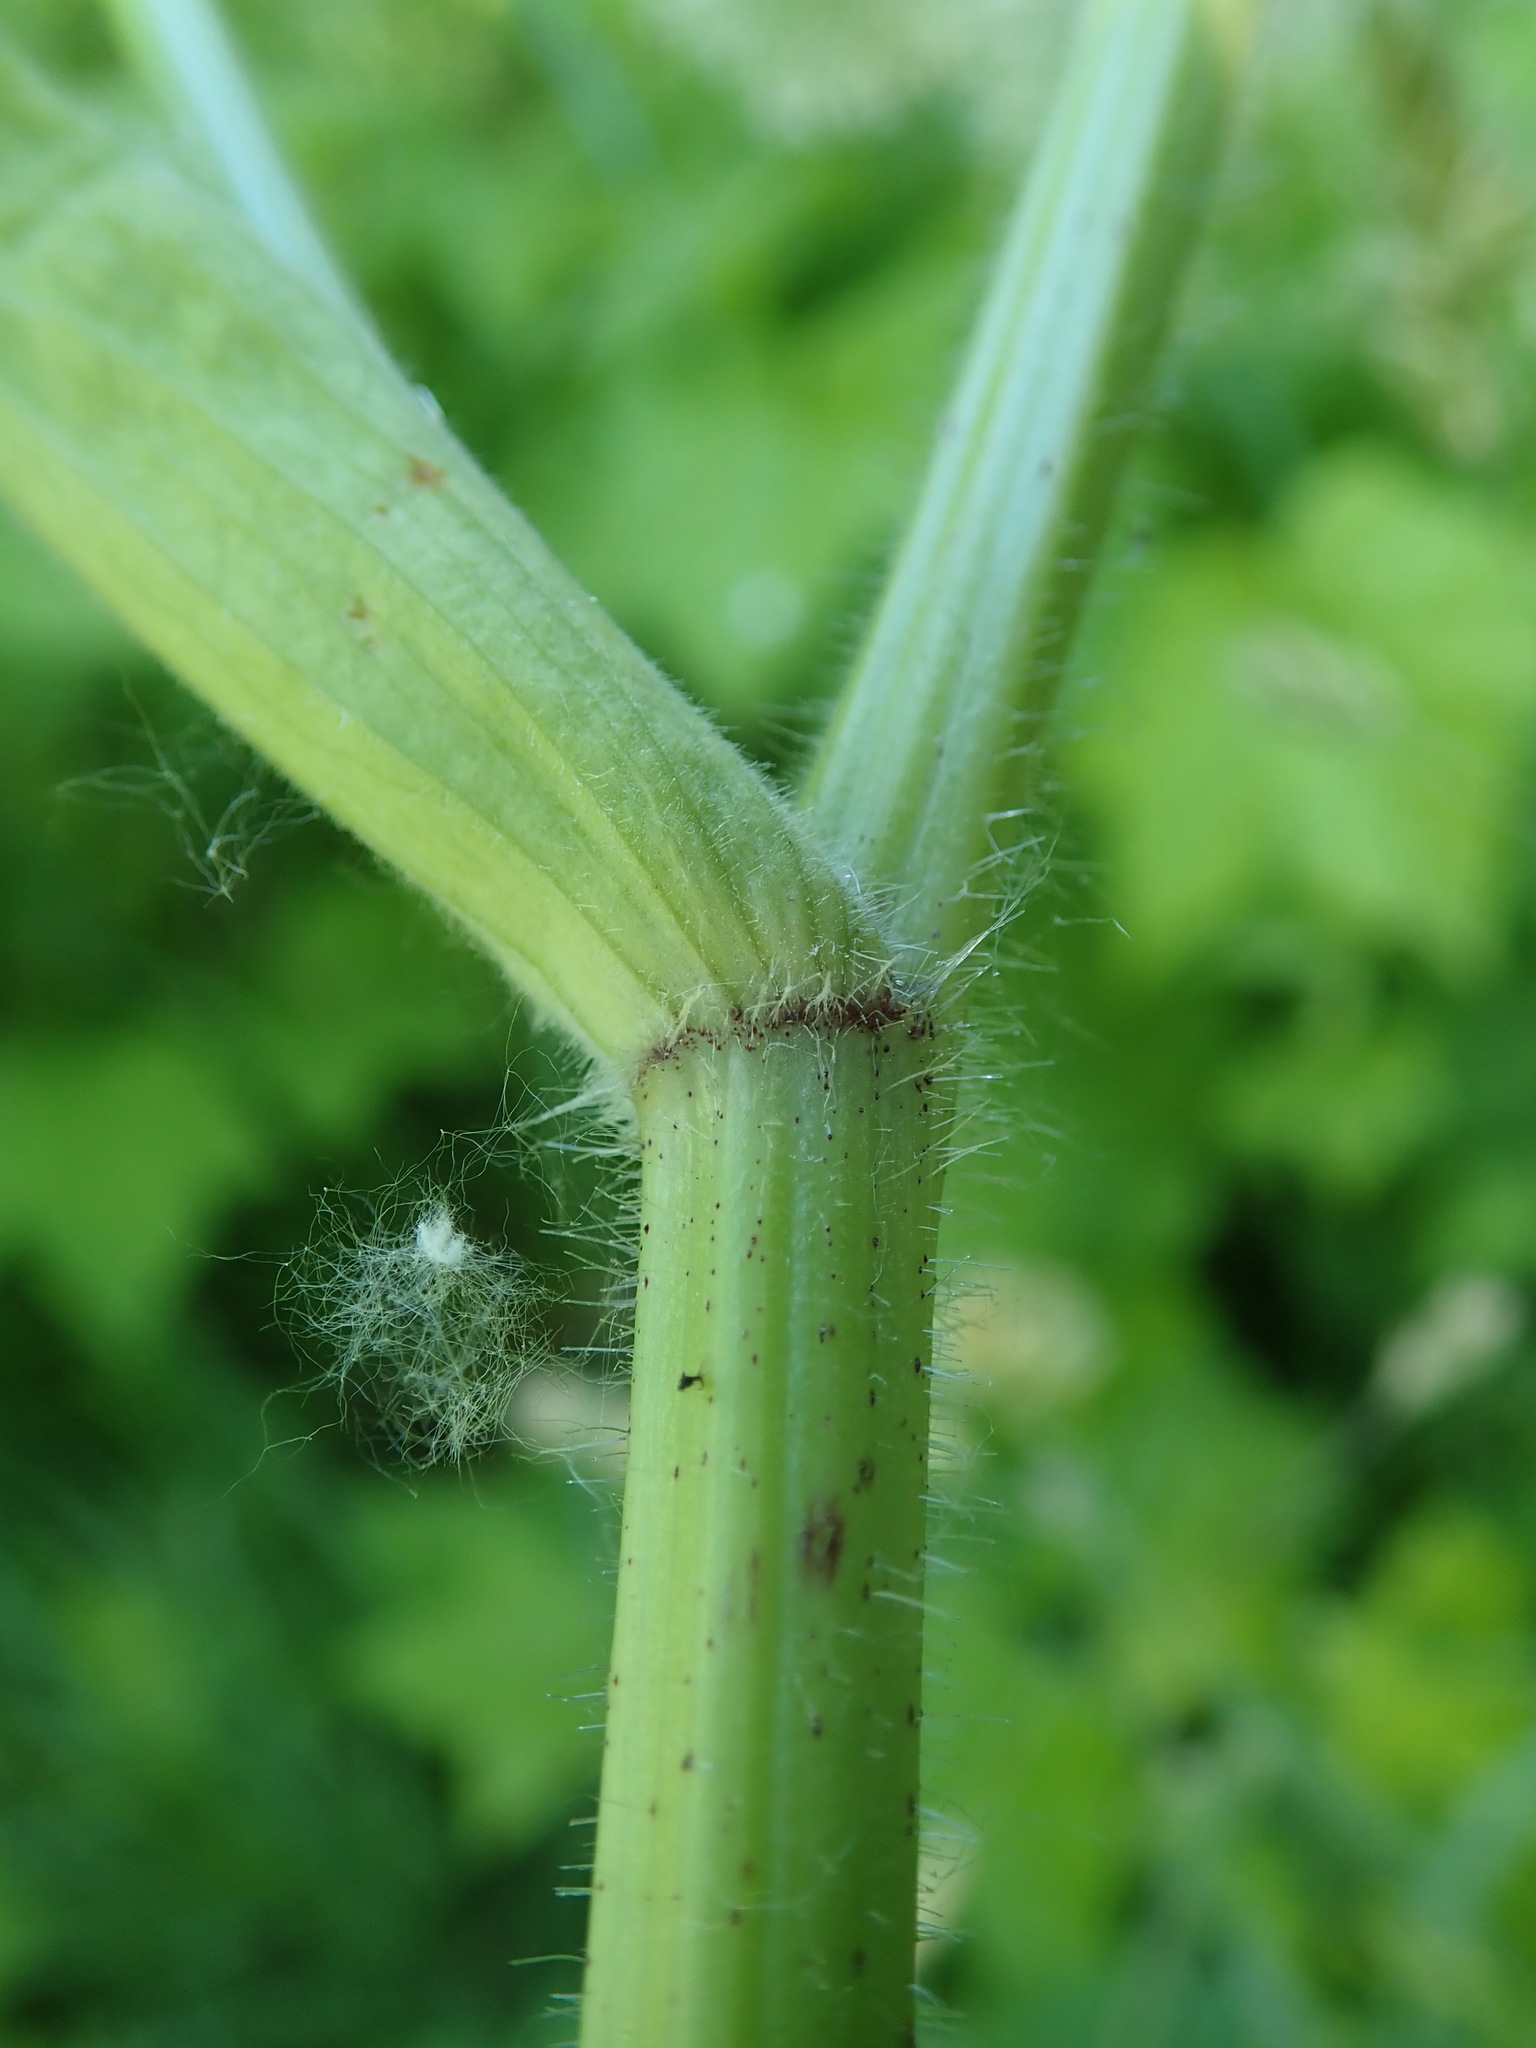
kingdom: Plantae
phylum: Tracheophyta
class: Magnoliopsida
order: Apiales
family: Apiaceae
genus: Heracleum
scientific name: Heracleum maximum
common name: American cow parsnip
